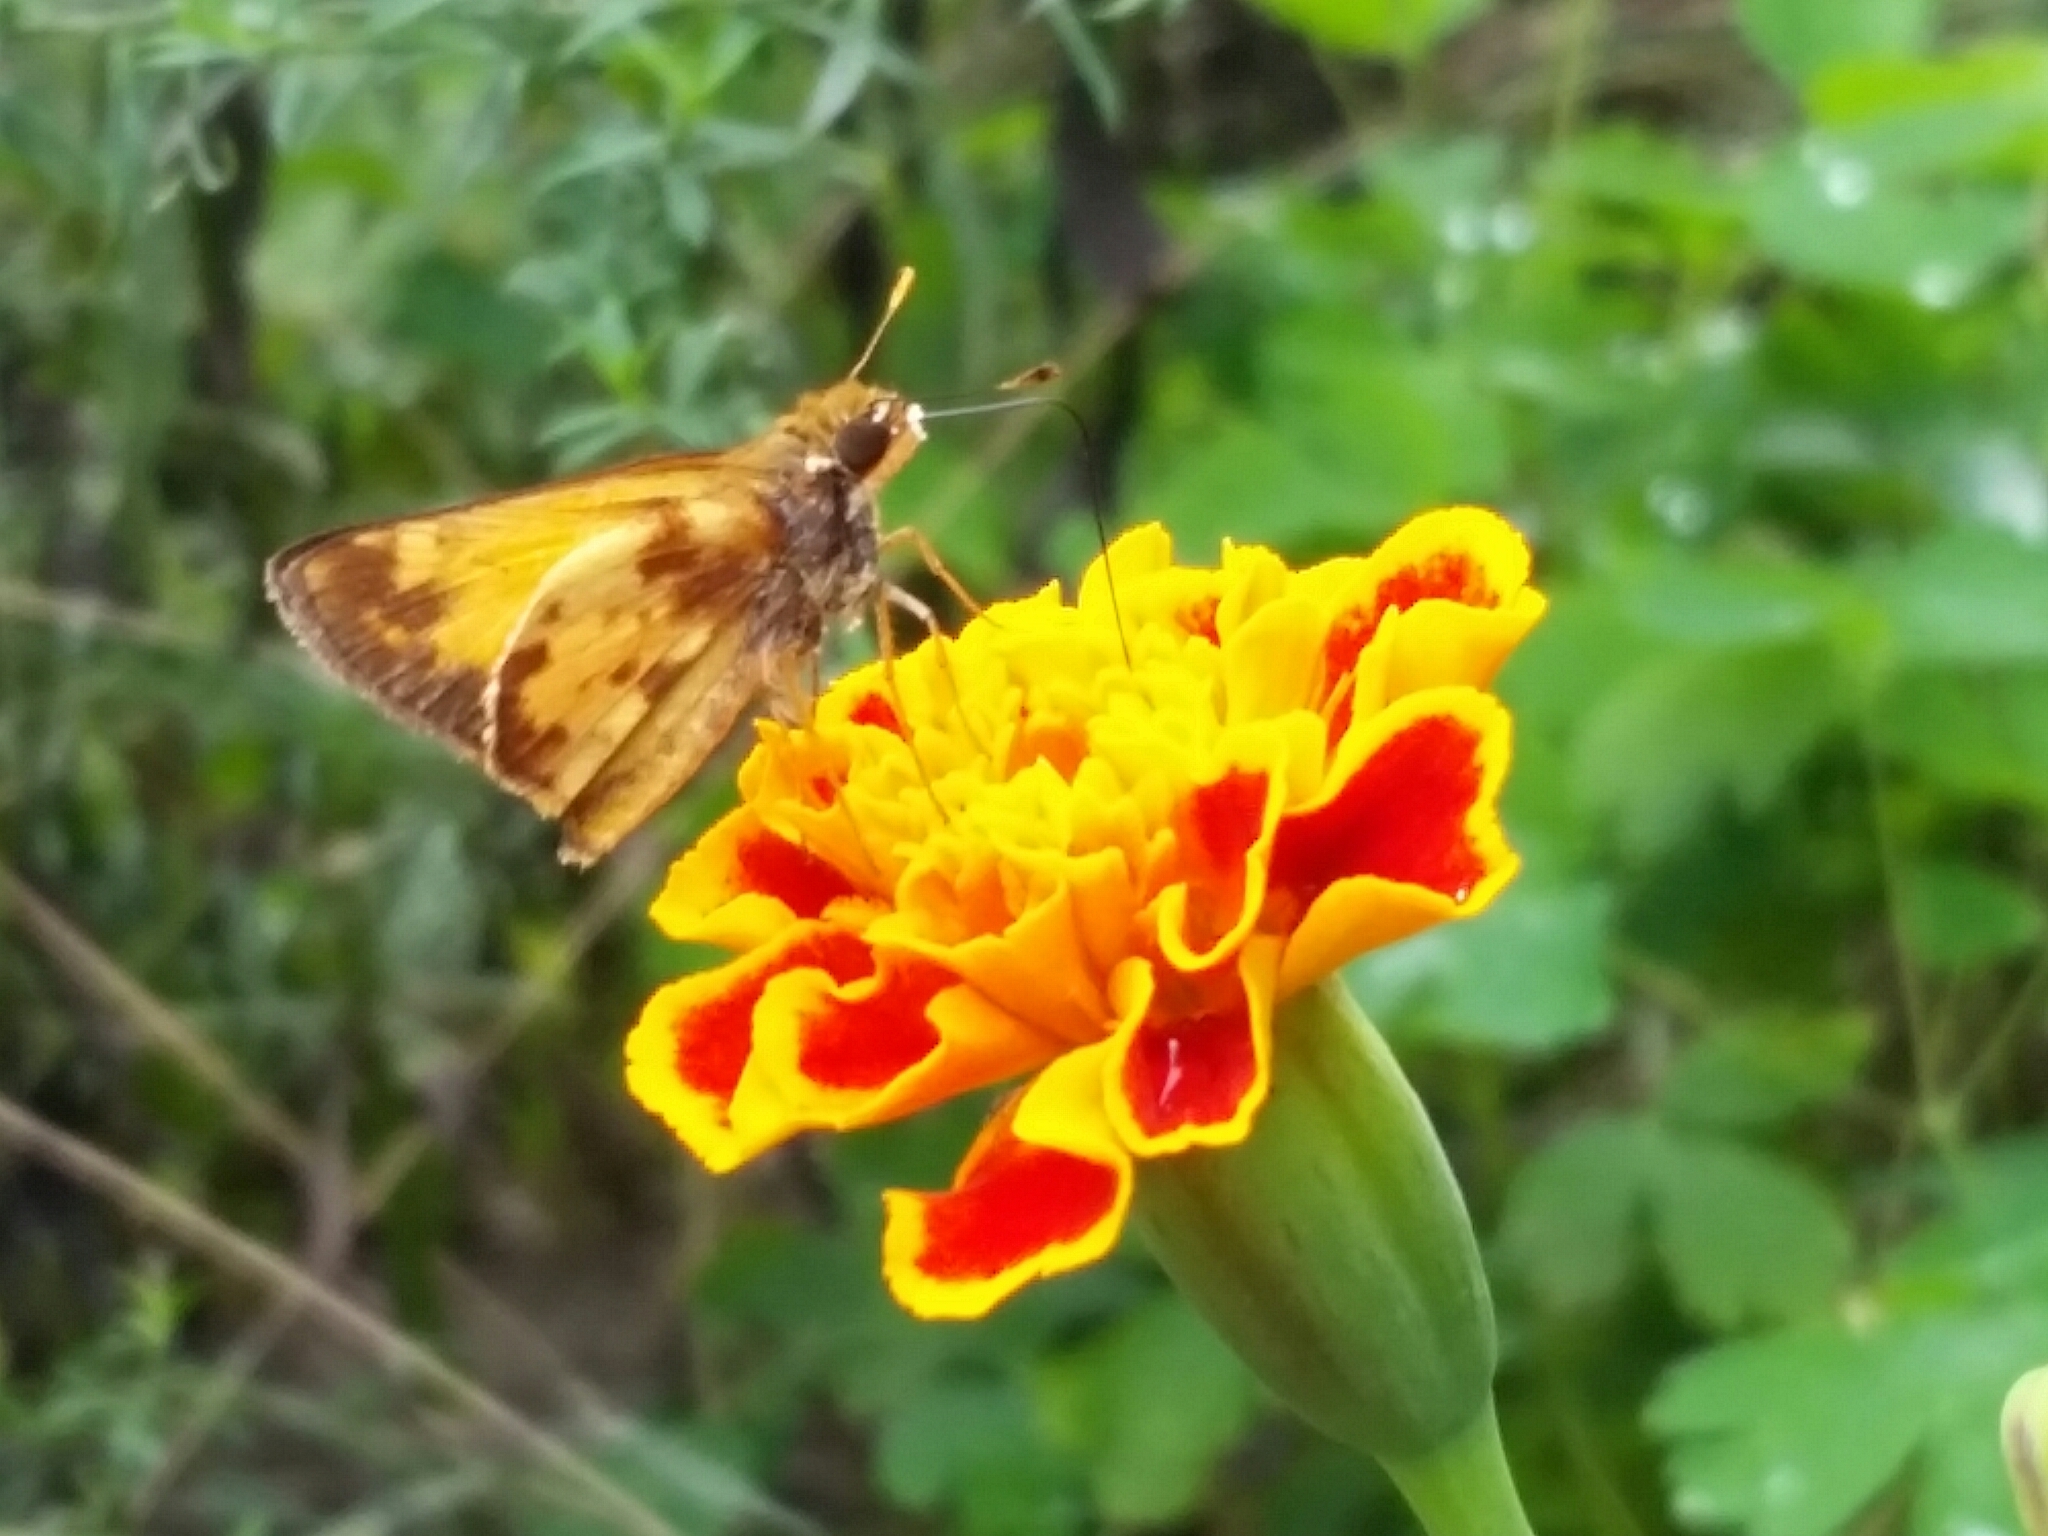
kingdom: Animalia
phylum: Arthropoda
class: Insecta
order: Lepidoptera
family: Hesperiidae
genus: Lon
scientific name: Lon zabulon
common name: Zabulon skipper
